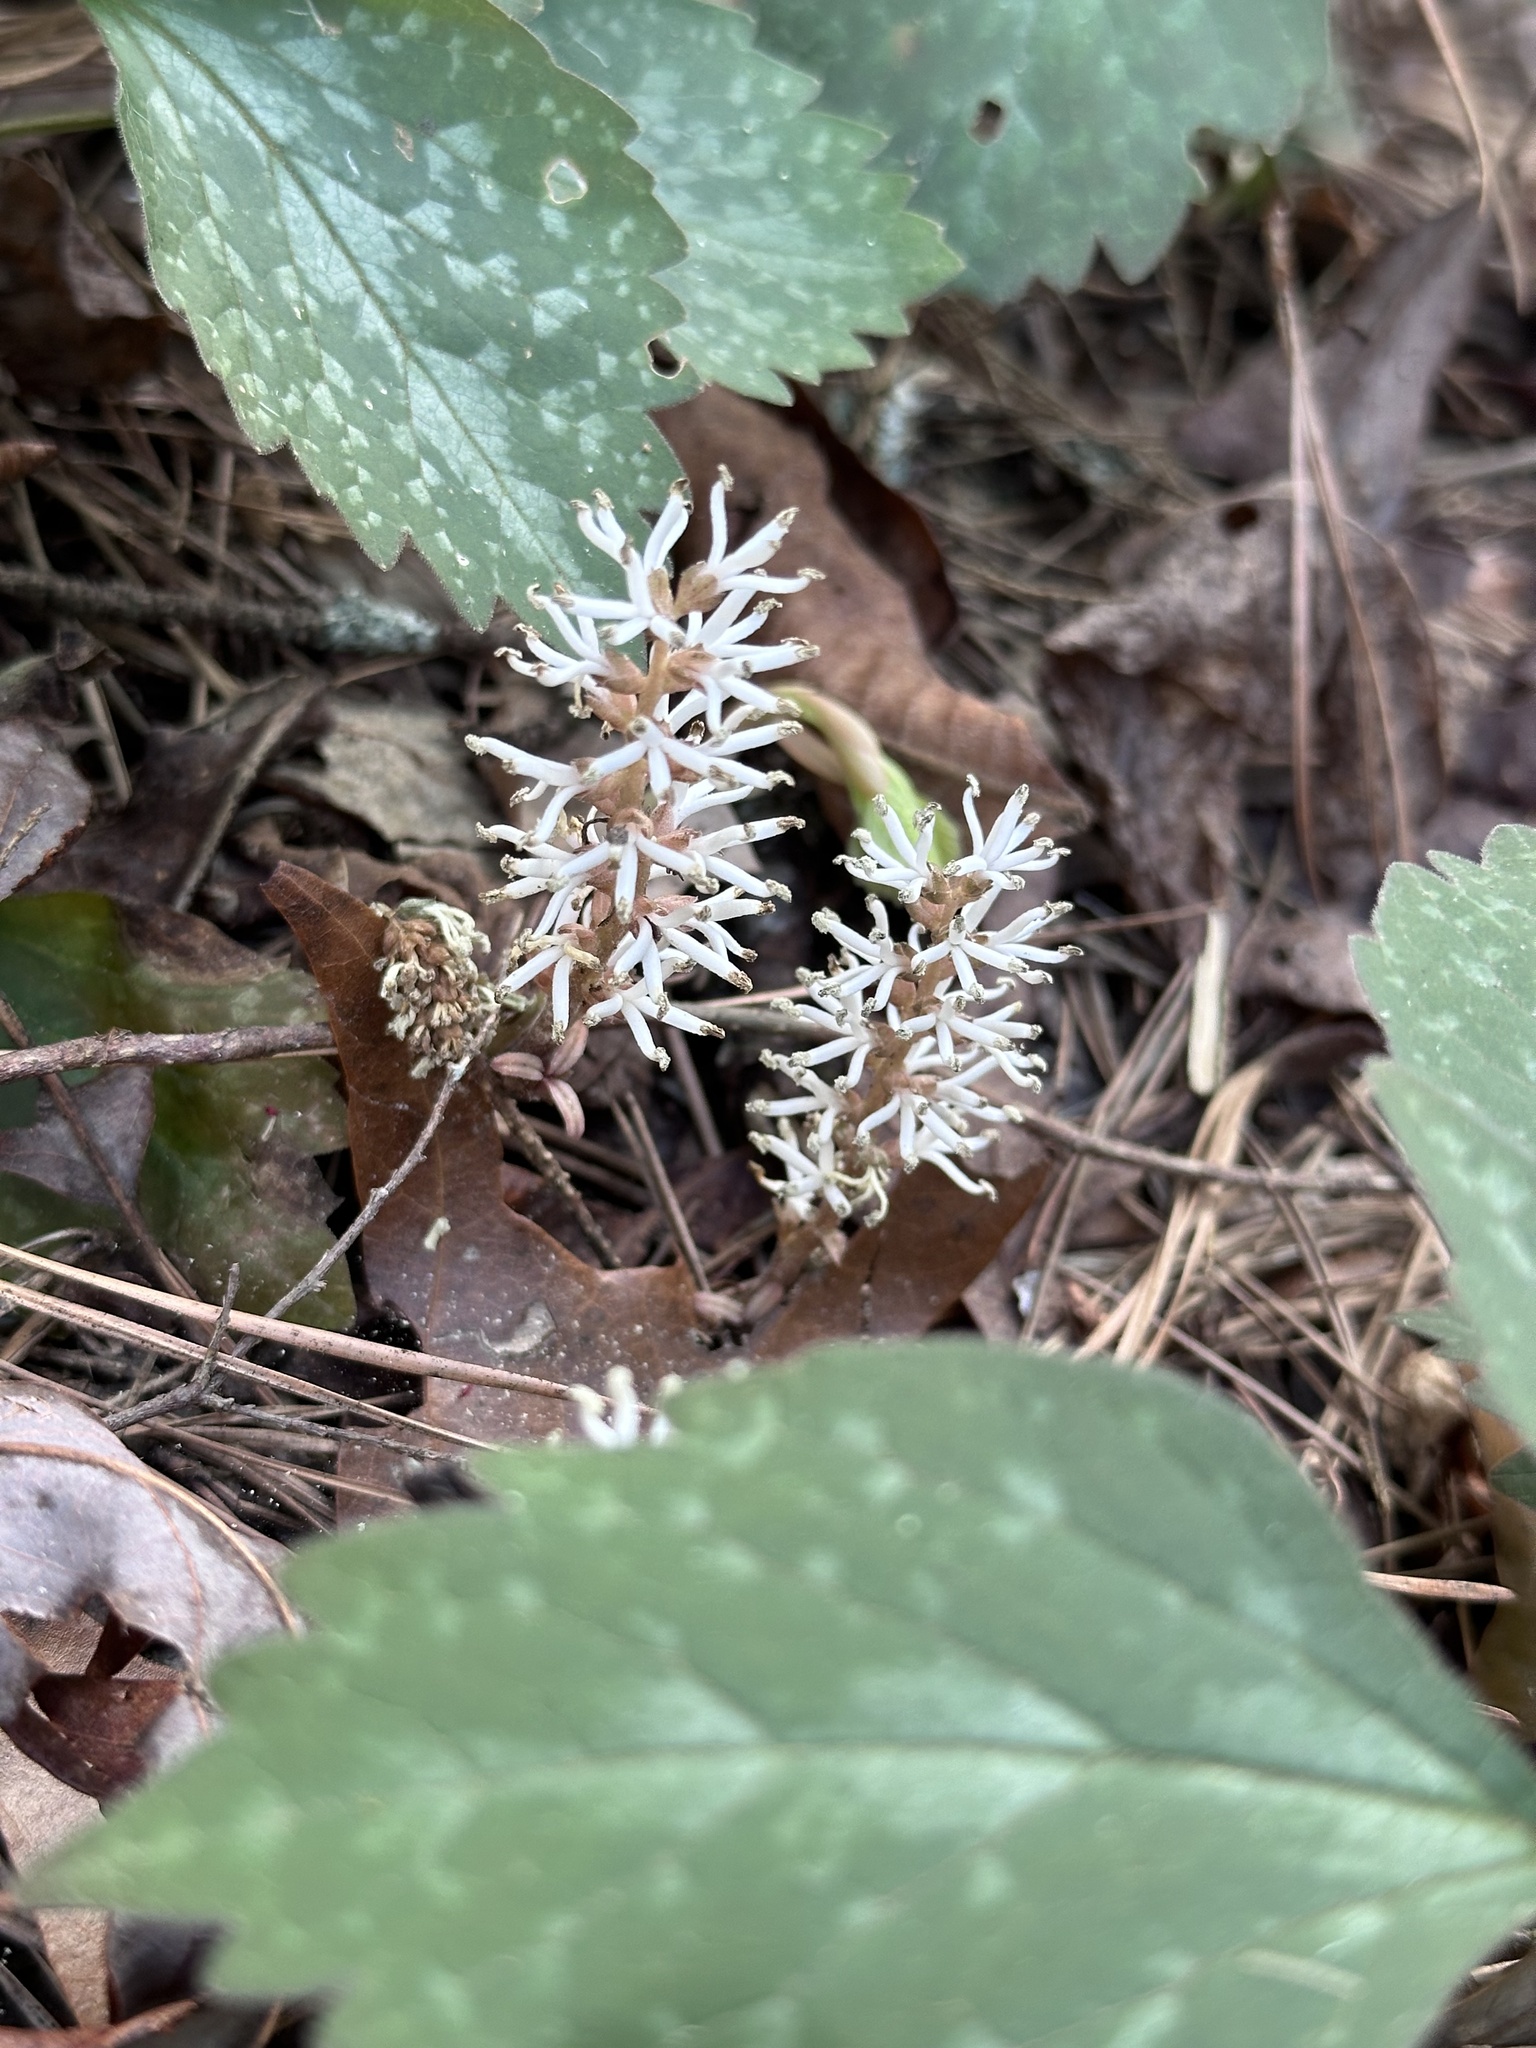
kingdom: Plantae
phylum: Tracheophyta
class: Magnoliopsida
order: Buxales
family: Buxaceae
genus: Pachysandra
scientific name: Pachysandra procumbens
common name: Mountain-spurge
